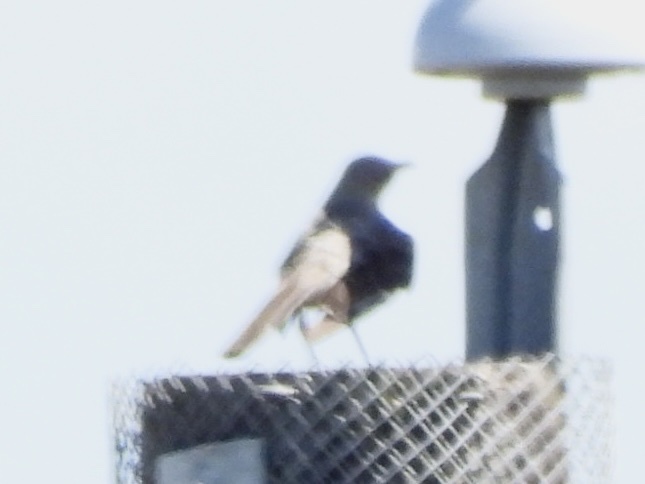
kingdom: Animalia
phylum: Chordata
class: Aves
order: Passeriformes
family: Mimidae
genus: Mimus
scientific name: Mimus polyglottos
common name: Northern mockingbird
